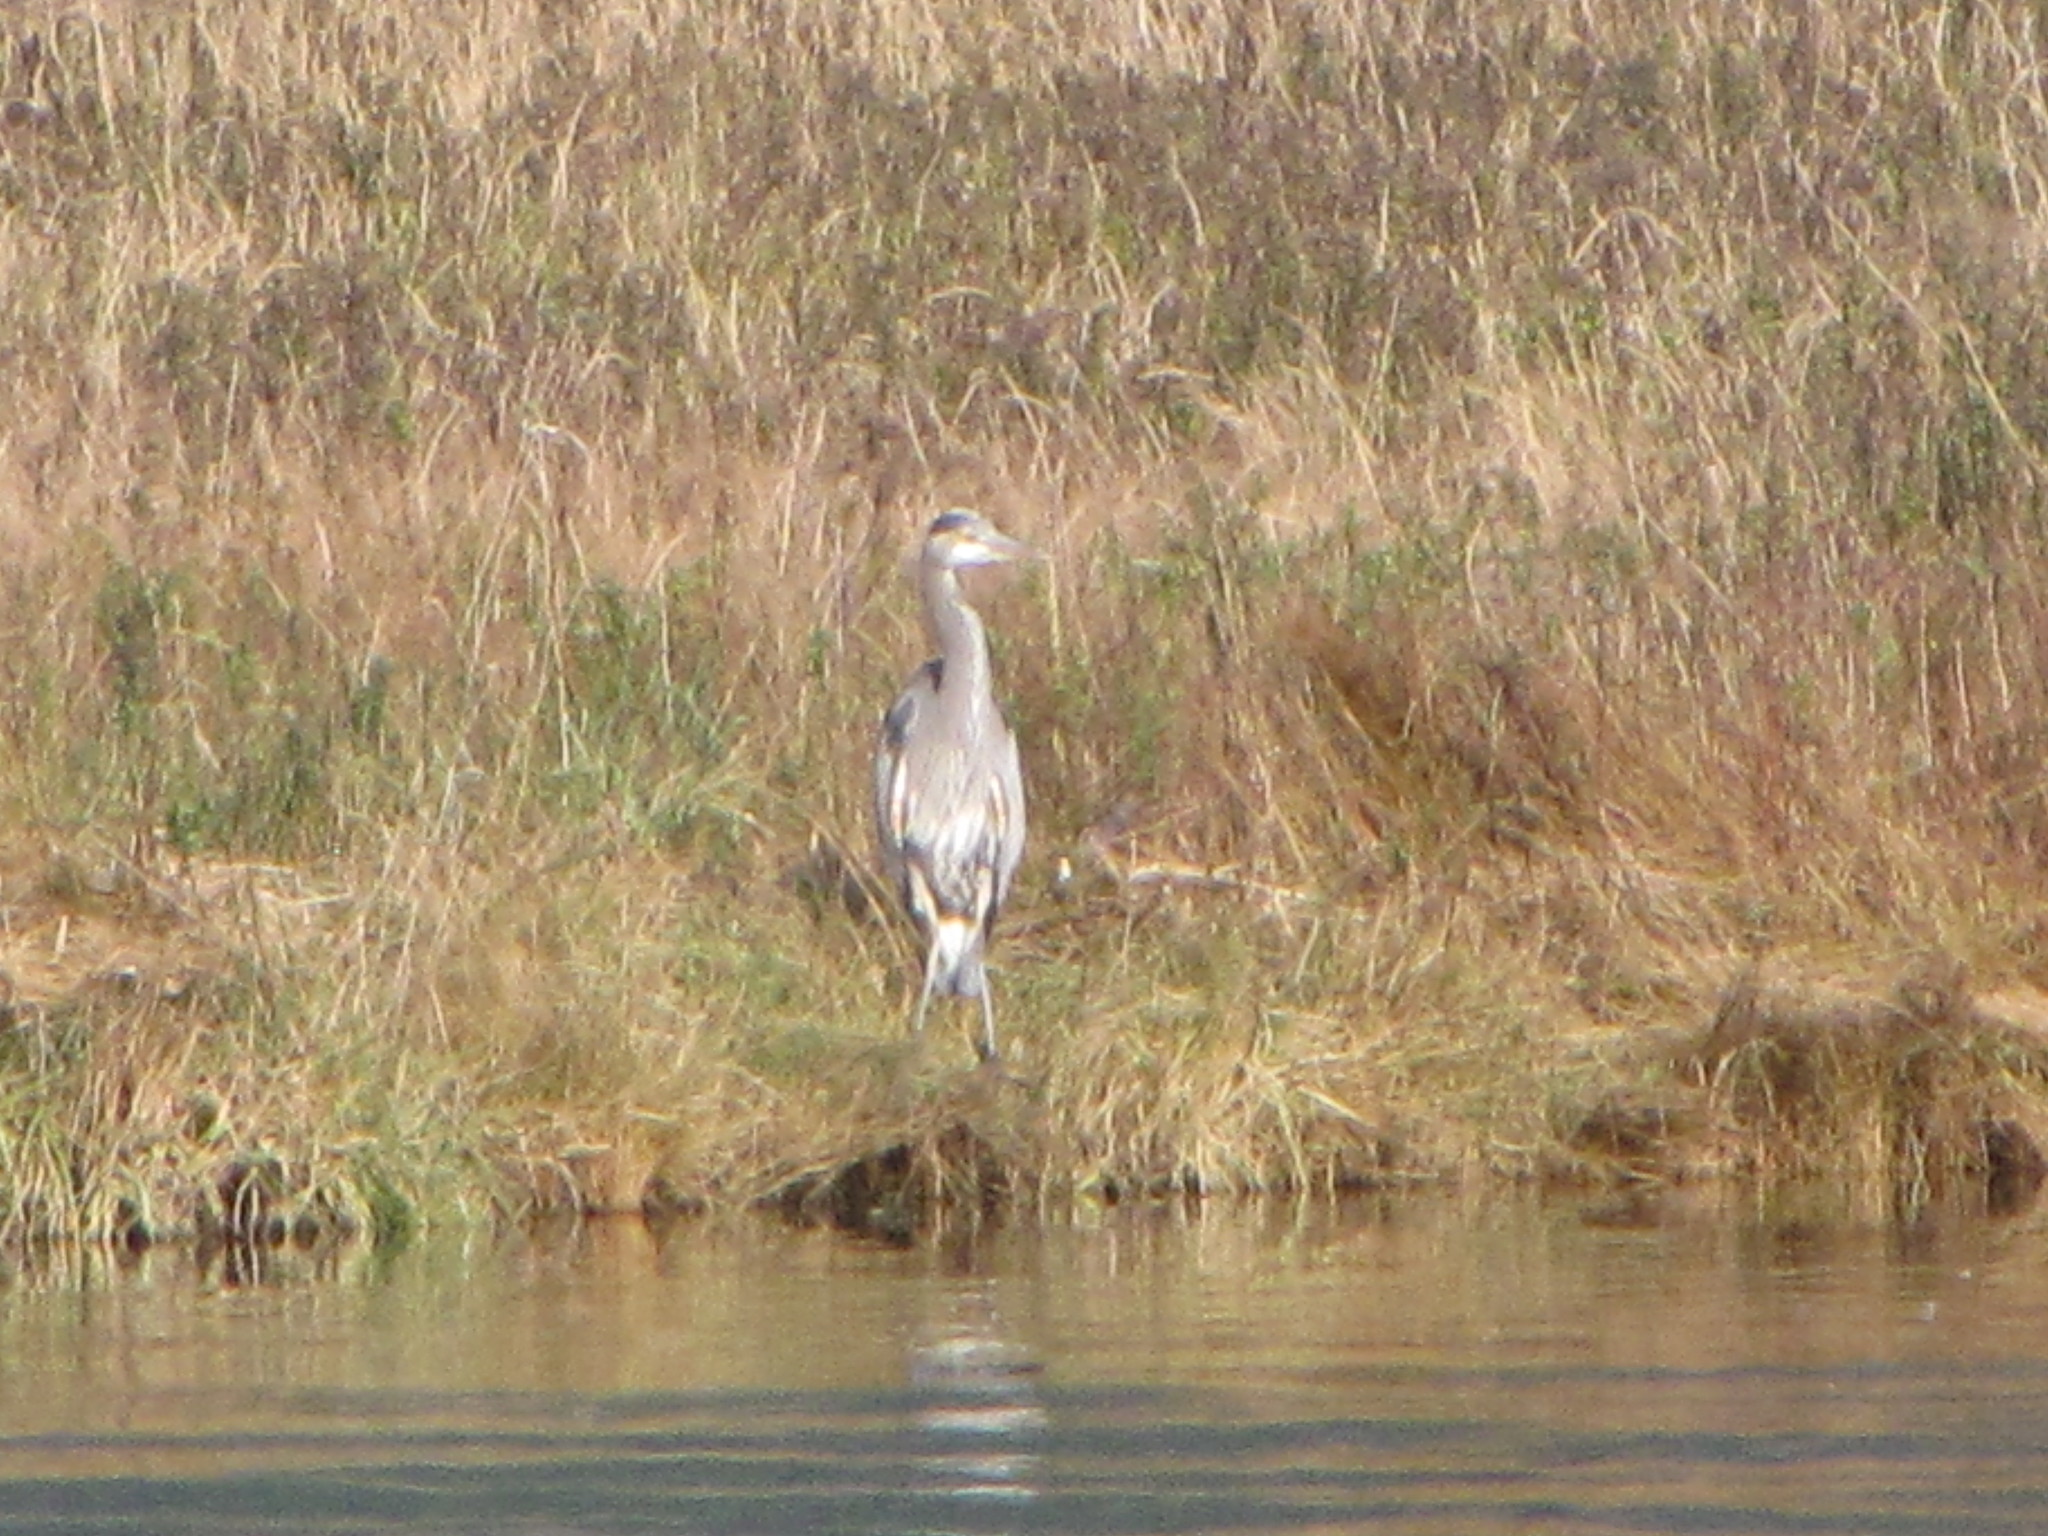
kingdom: Animalia
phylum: Chordata
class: Aves
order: Pelecaniformes
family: Ardeidae
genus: Ardea
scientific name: Ardea herodias
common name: Great blue heron
